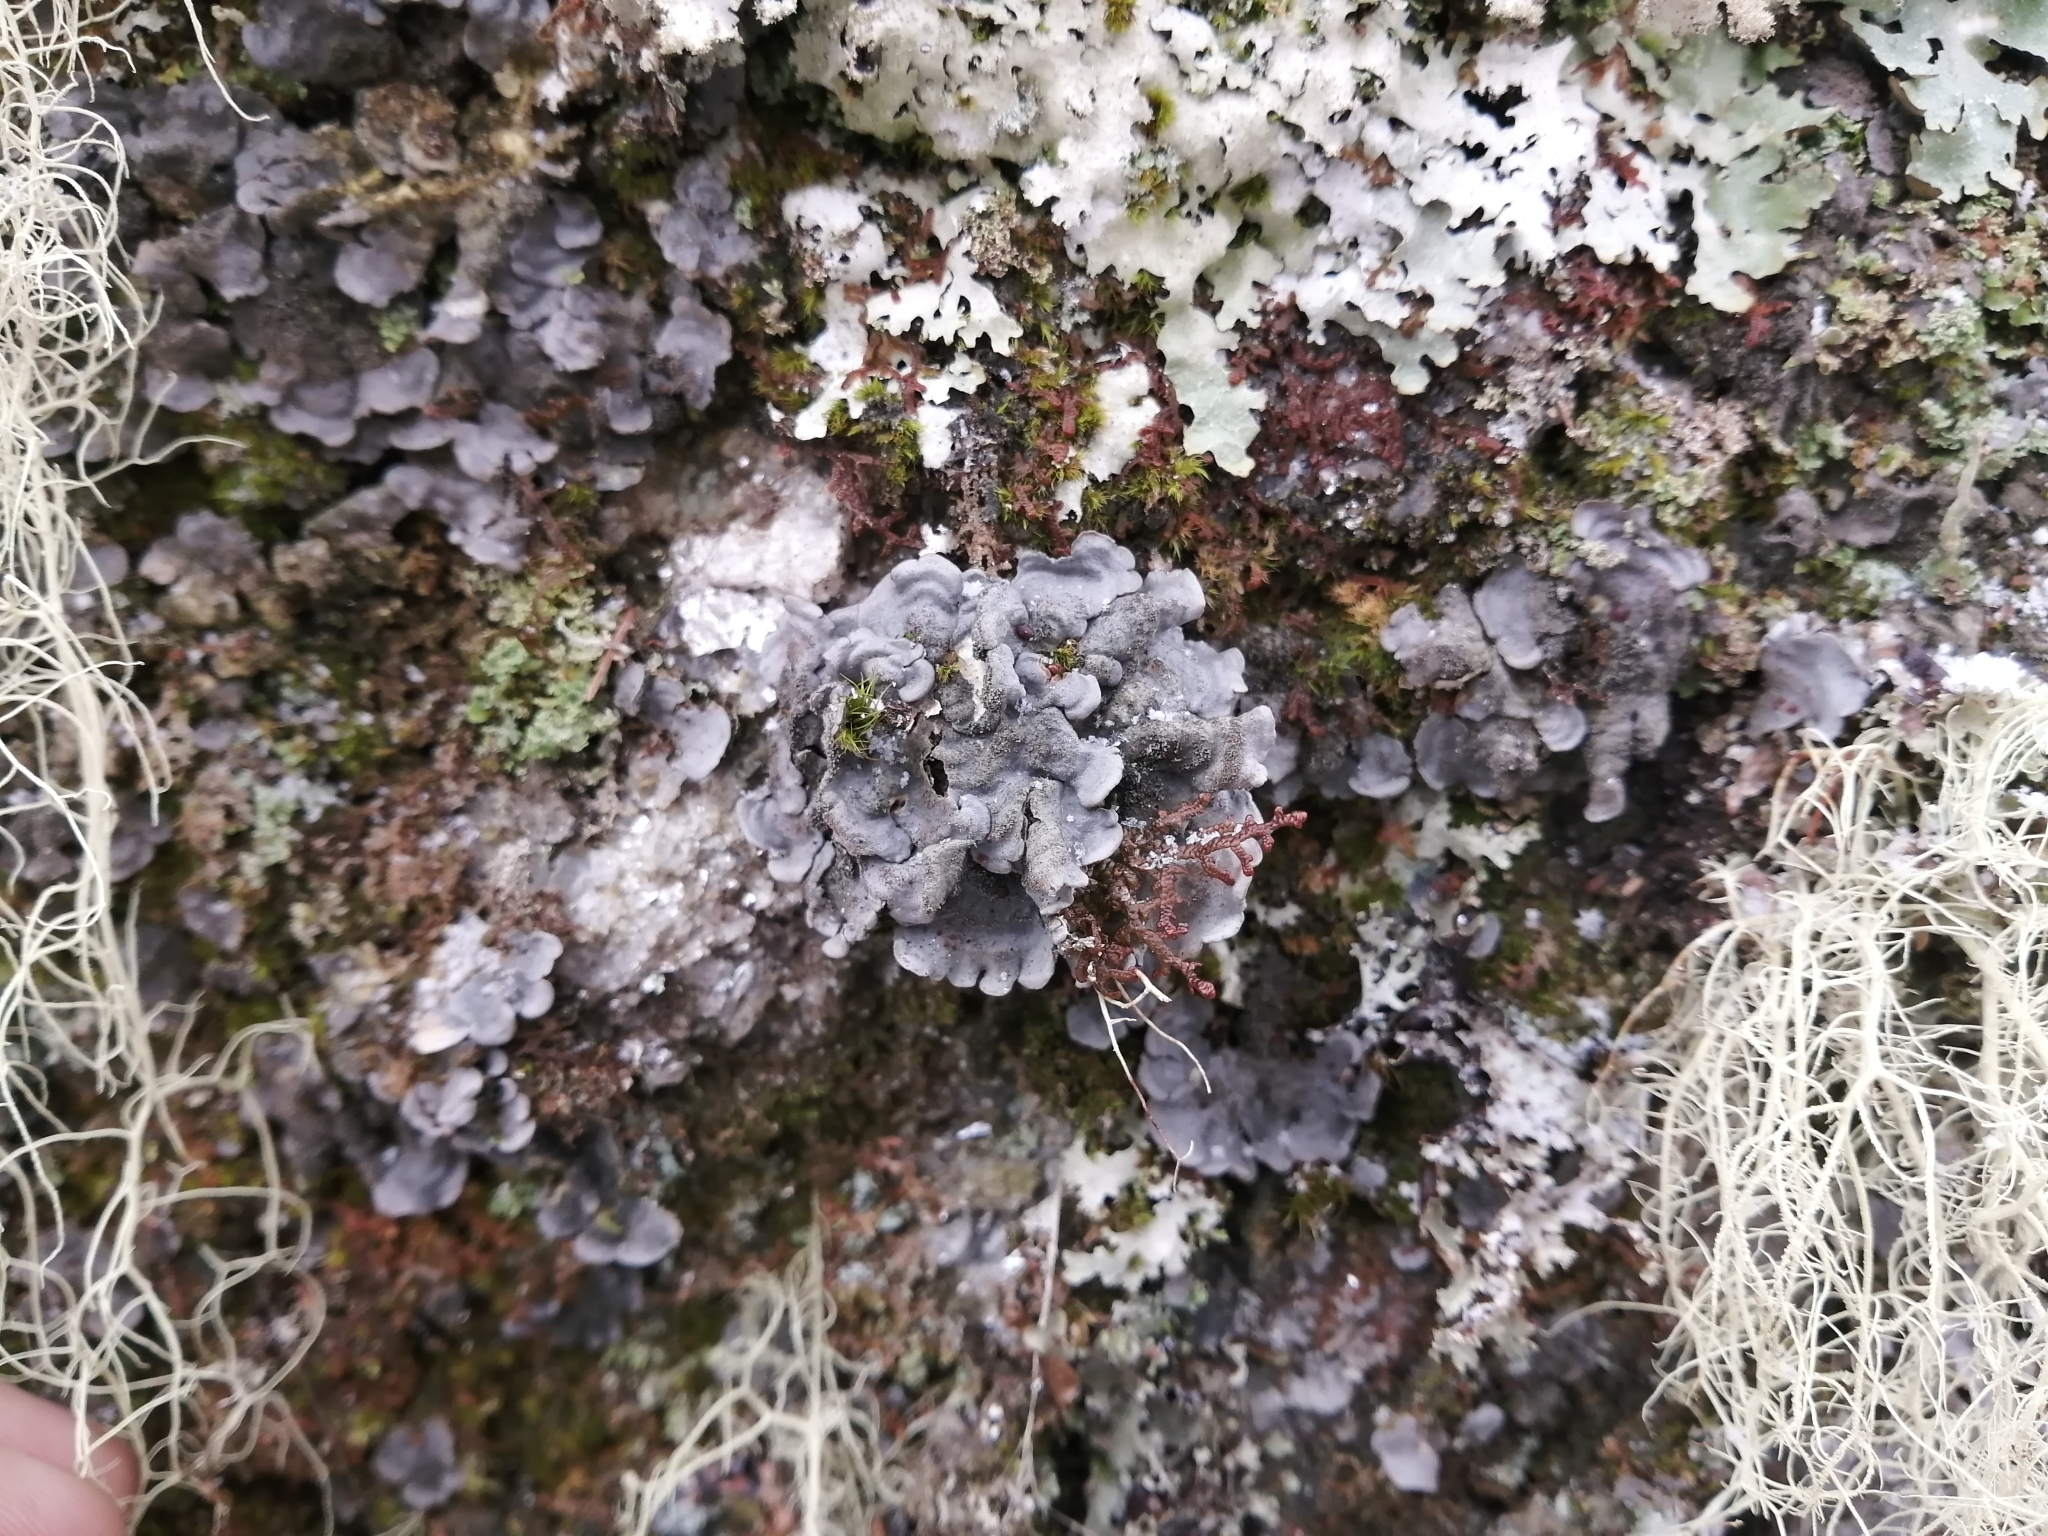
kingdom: Fungi
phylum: Ascomycota
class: Lecanoromycetes
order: Peltigerales
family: Coccocarpiaceae
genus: Coccocarpia
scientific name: Coccocarpia palmicola
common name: Salted shell lichen
